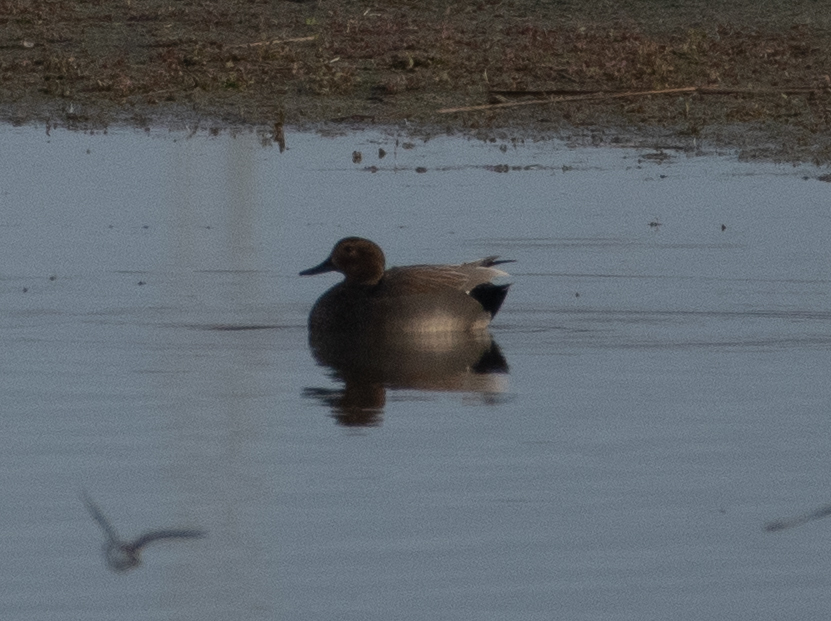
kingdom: Animalia
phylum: Chordata
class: Aves
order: Anseriformes
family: Anatidae
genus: Mareca
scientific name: Mareca strepera
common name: Gadwall
